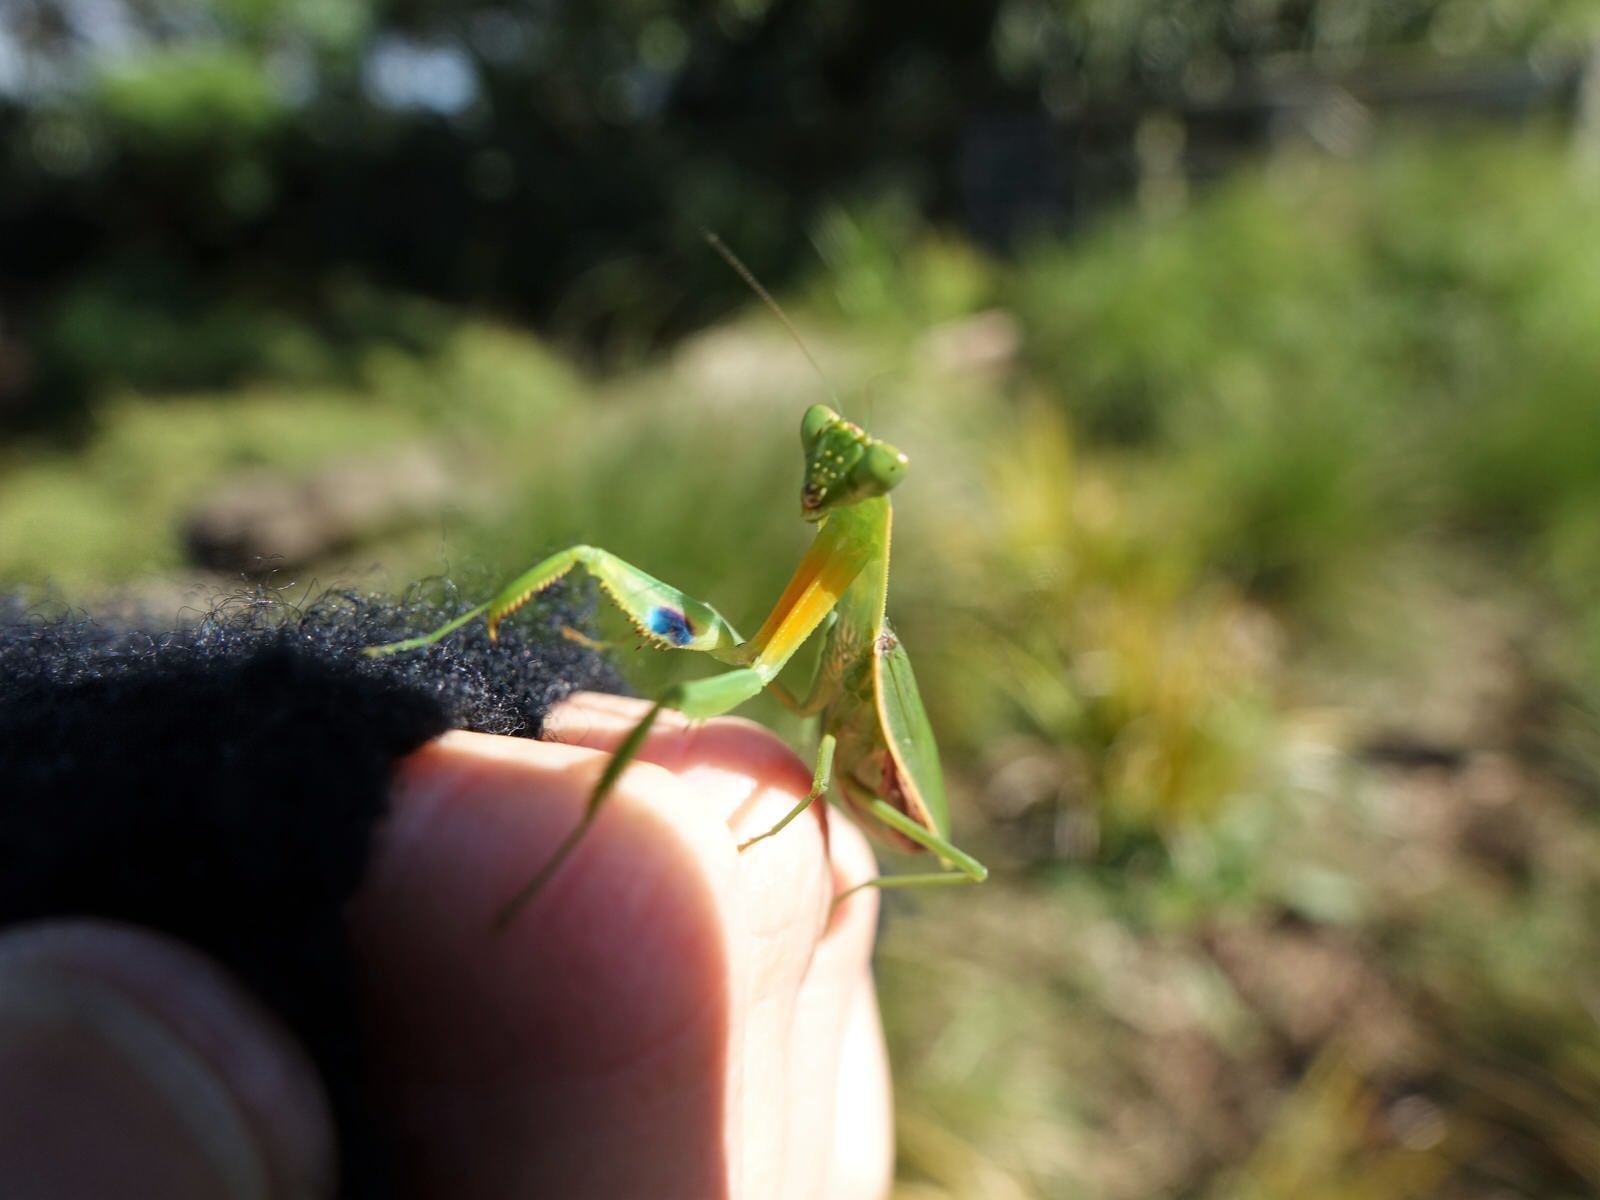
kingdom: Animalia
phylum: Arthropoda
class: Insecta
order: Mantodea
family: Mantidae
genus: Orthodera
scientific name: Orthodera novaezealandiae
